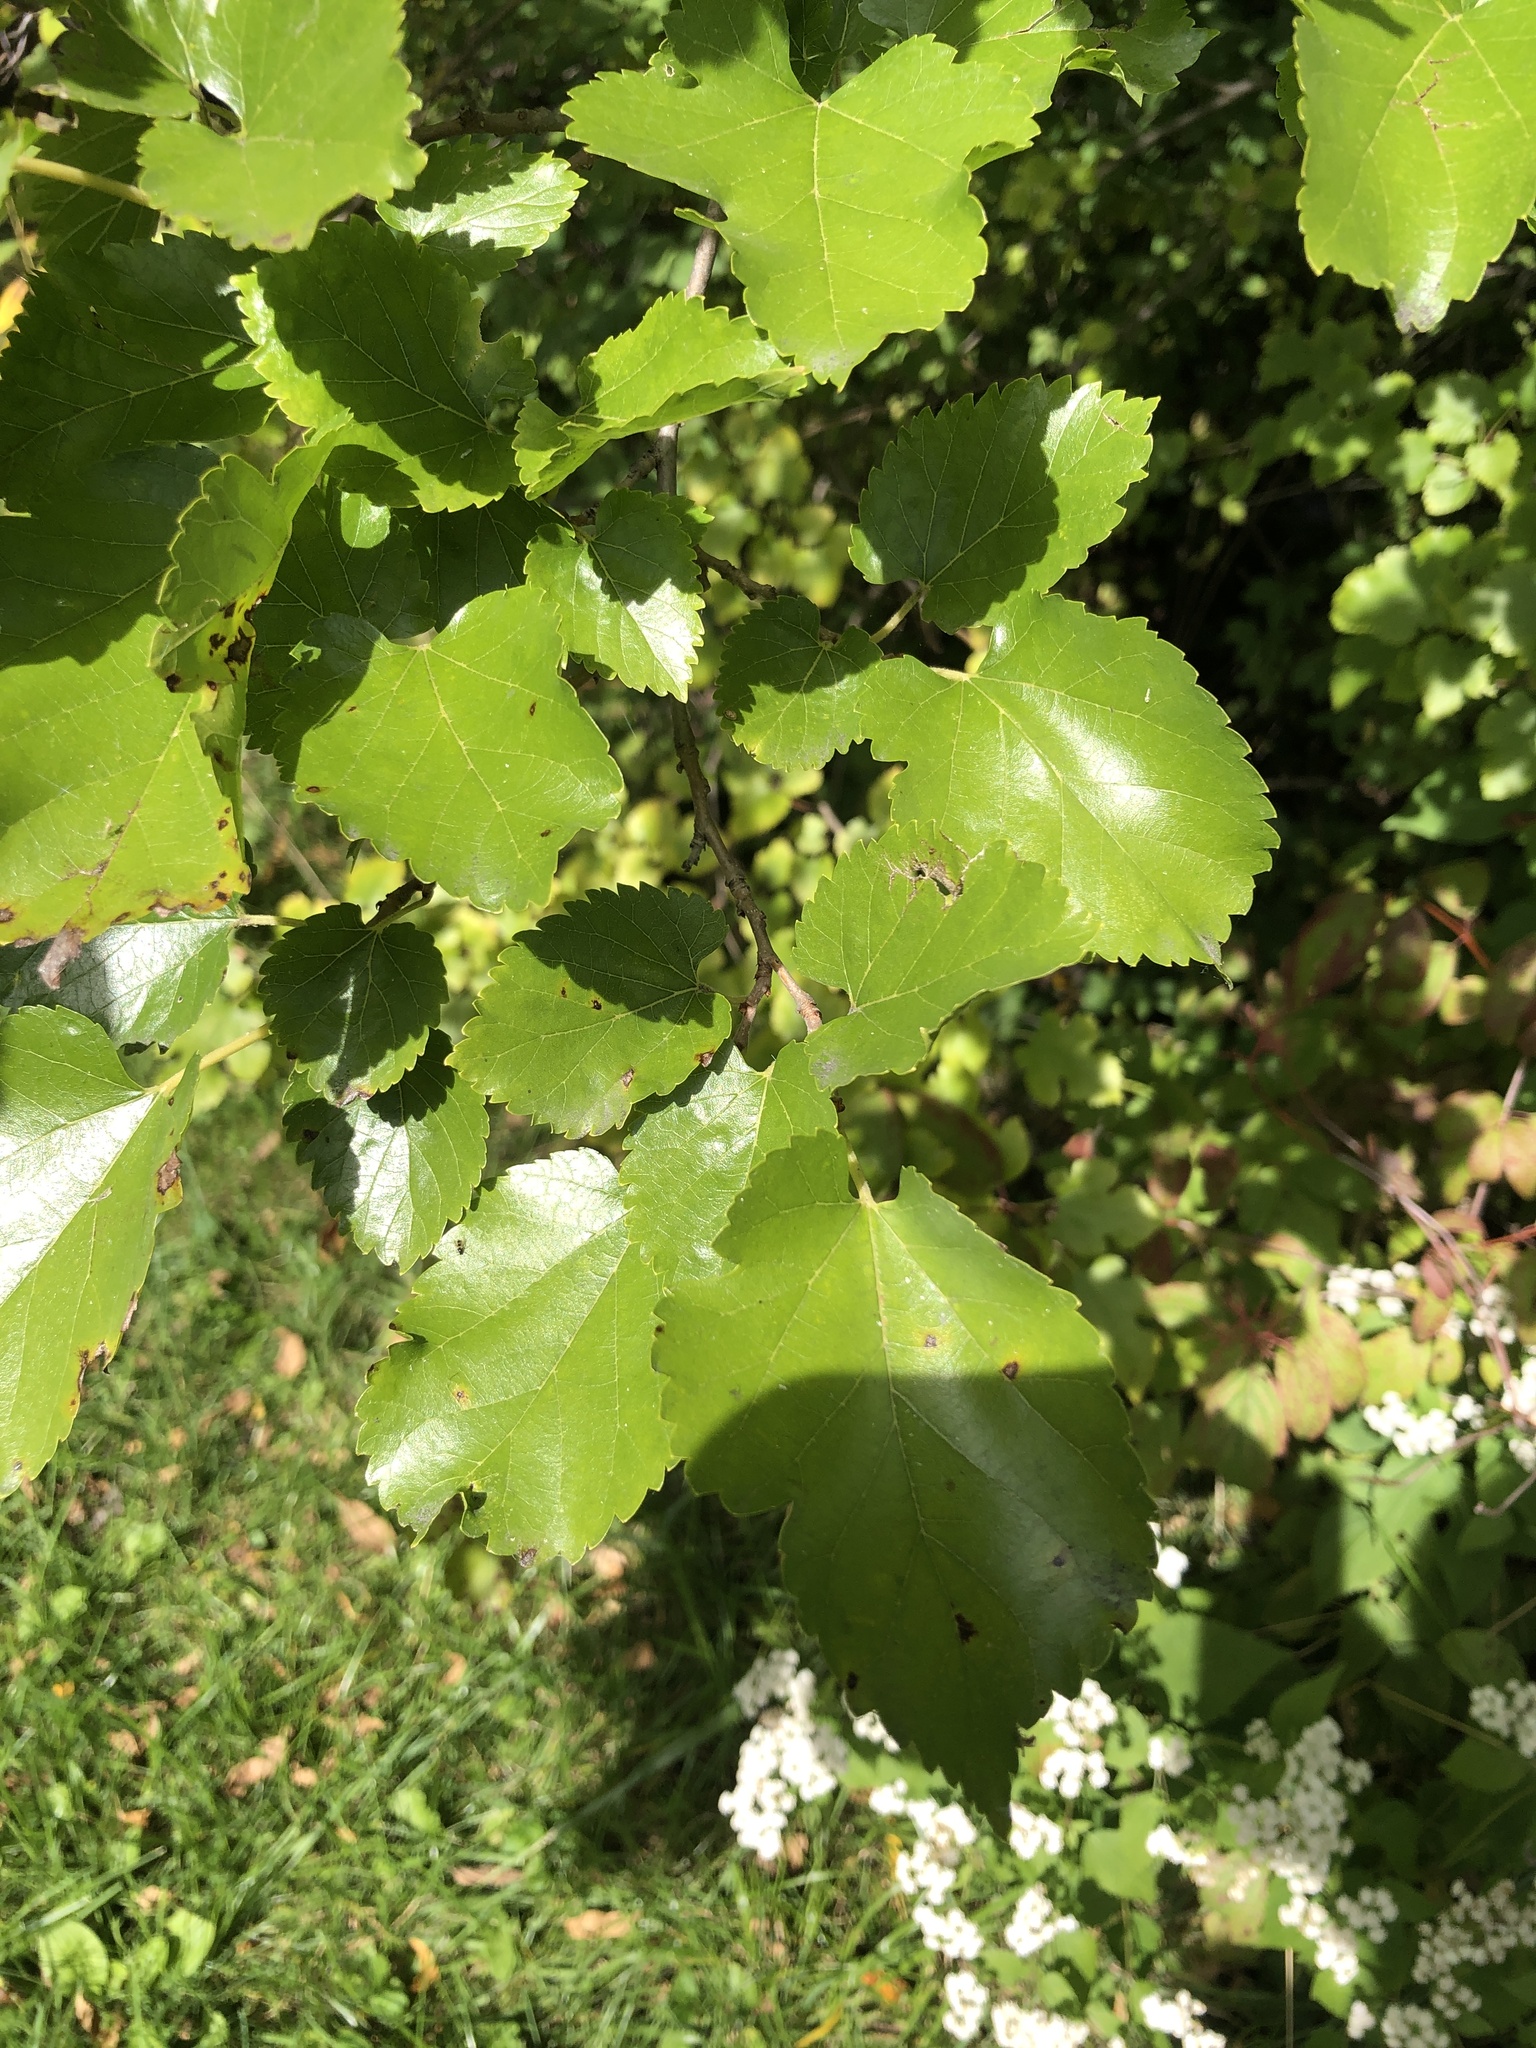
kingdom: Plantae
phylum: Tracheophyta
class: Magnoliopsida
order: Rosales
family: Moraceae
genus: Morus
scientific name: Morus alba
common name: White mulberry
